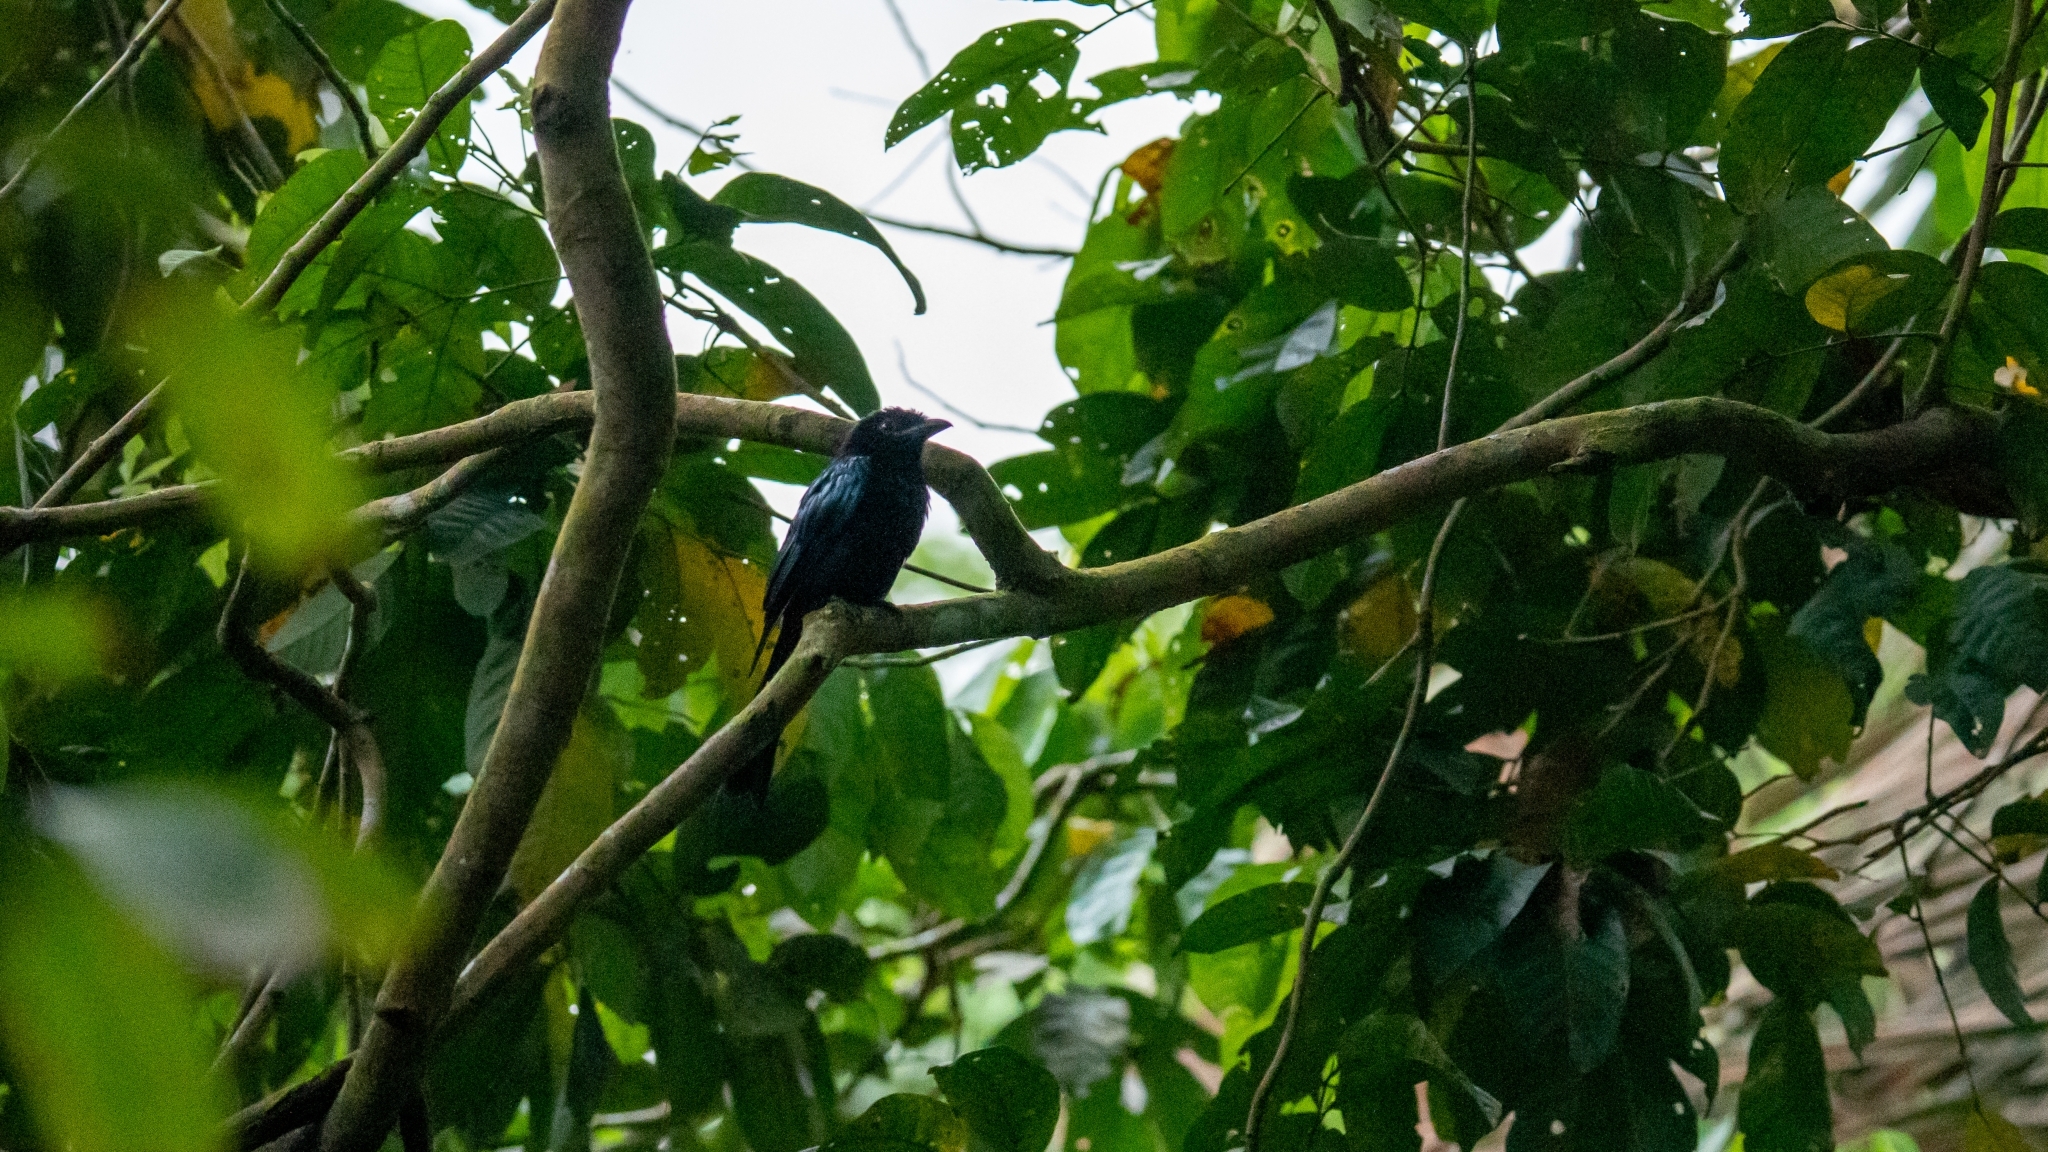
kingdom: Animalia
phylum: Chordata
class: Aves
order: Passeriformes
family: Dicruridae
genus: Dicrurus
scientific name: Dicrurus paradiseus
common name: Greater racket-tailed drongo
